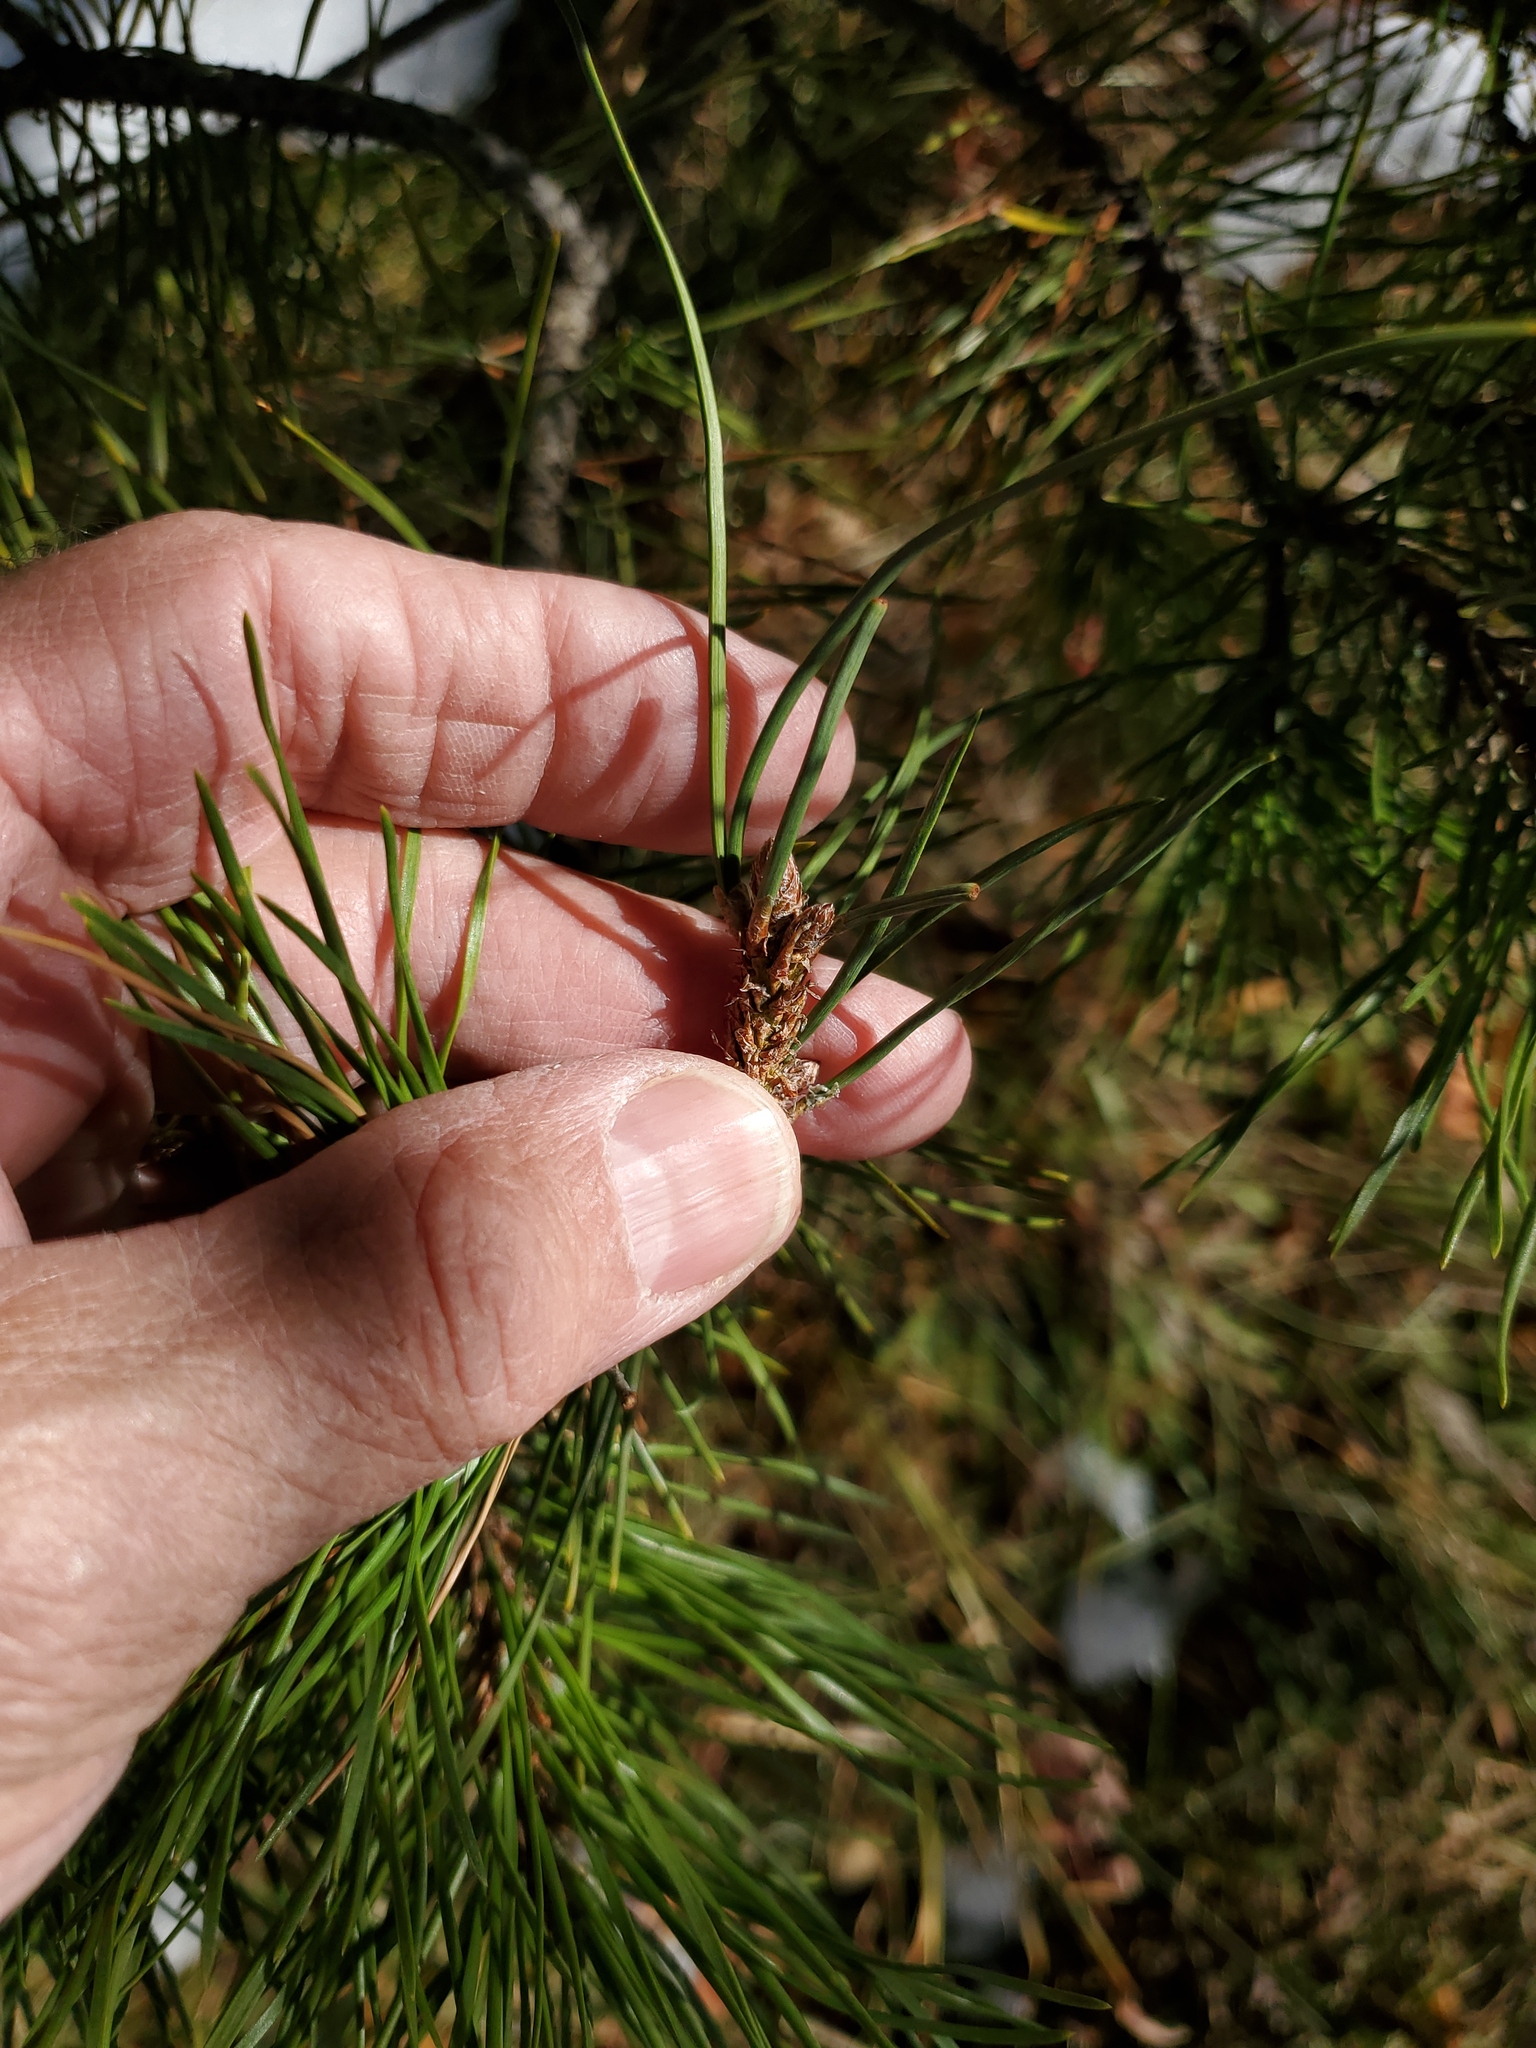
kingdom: Plantae
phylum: Tracheophyta
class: Pinopsida
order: Pinales
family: Pinaceae
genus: Pinus
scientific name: Pinus contorta
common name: Lodgepole pine
